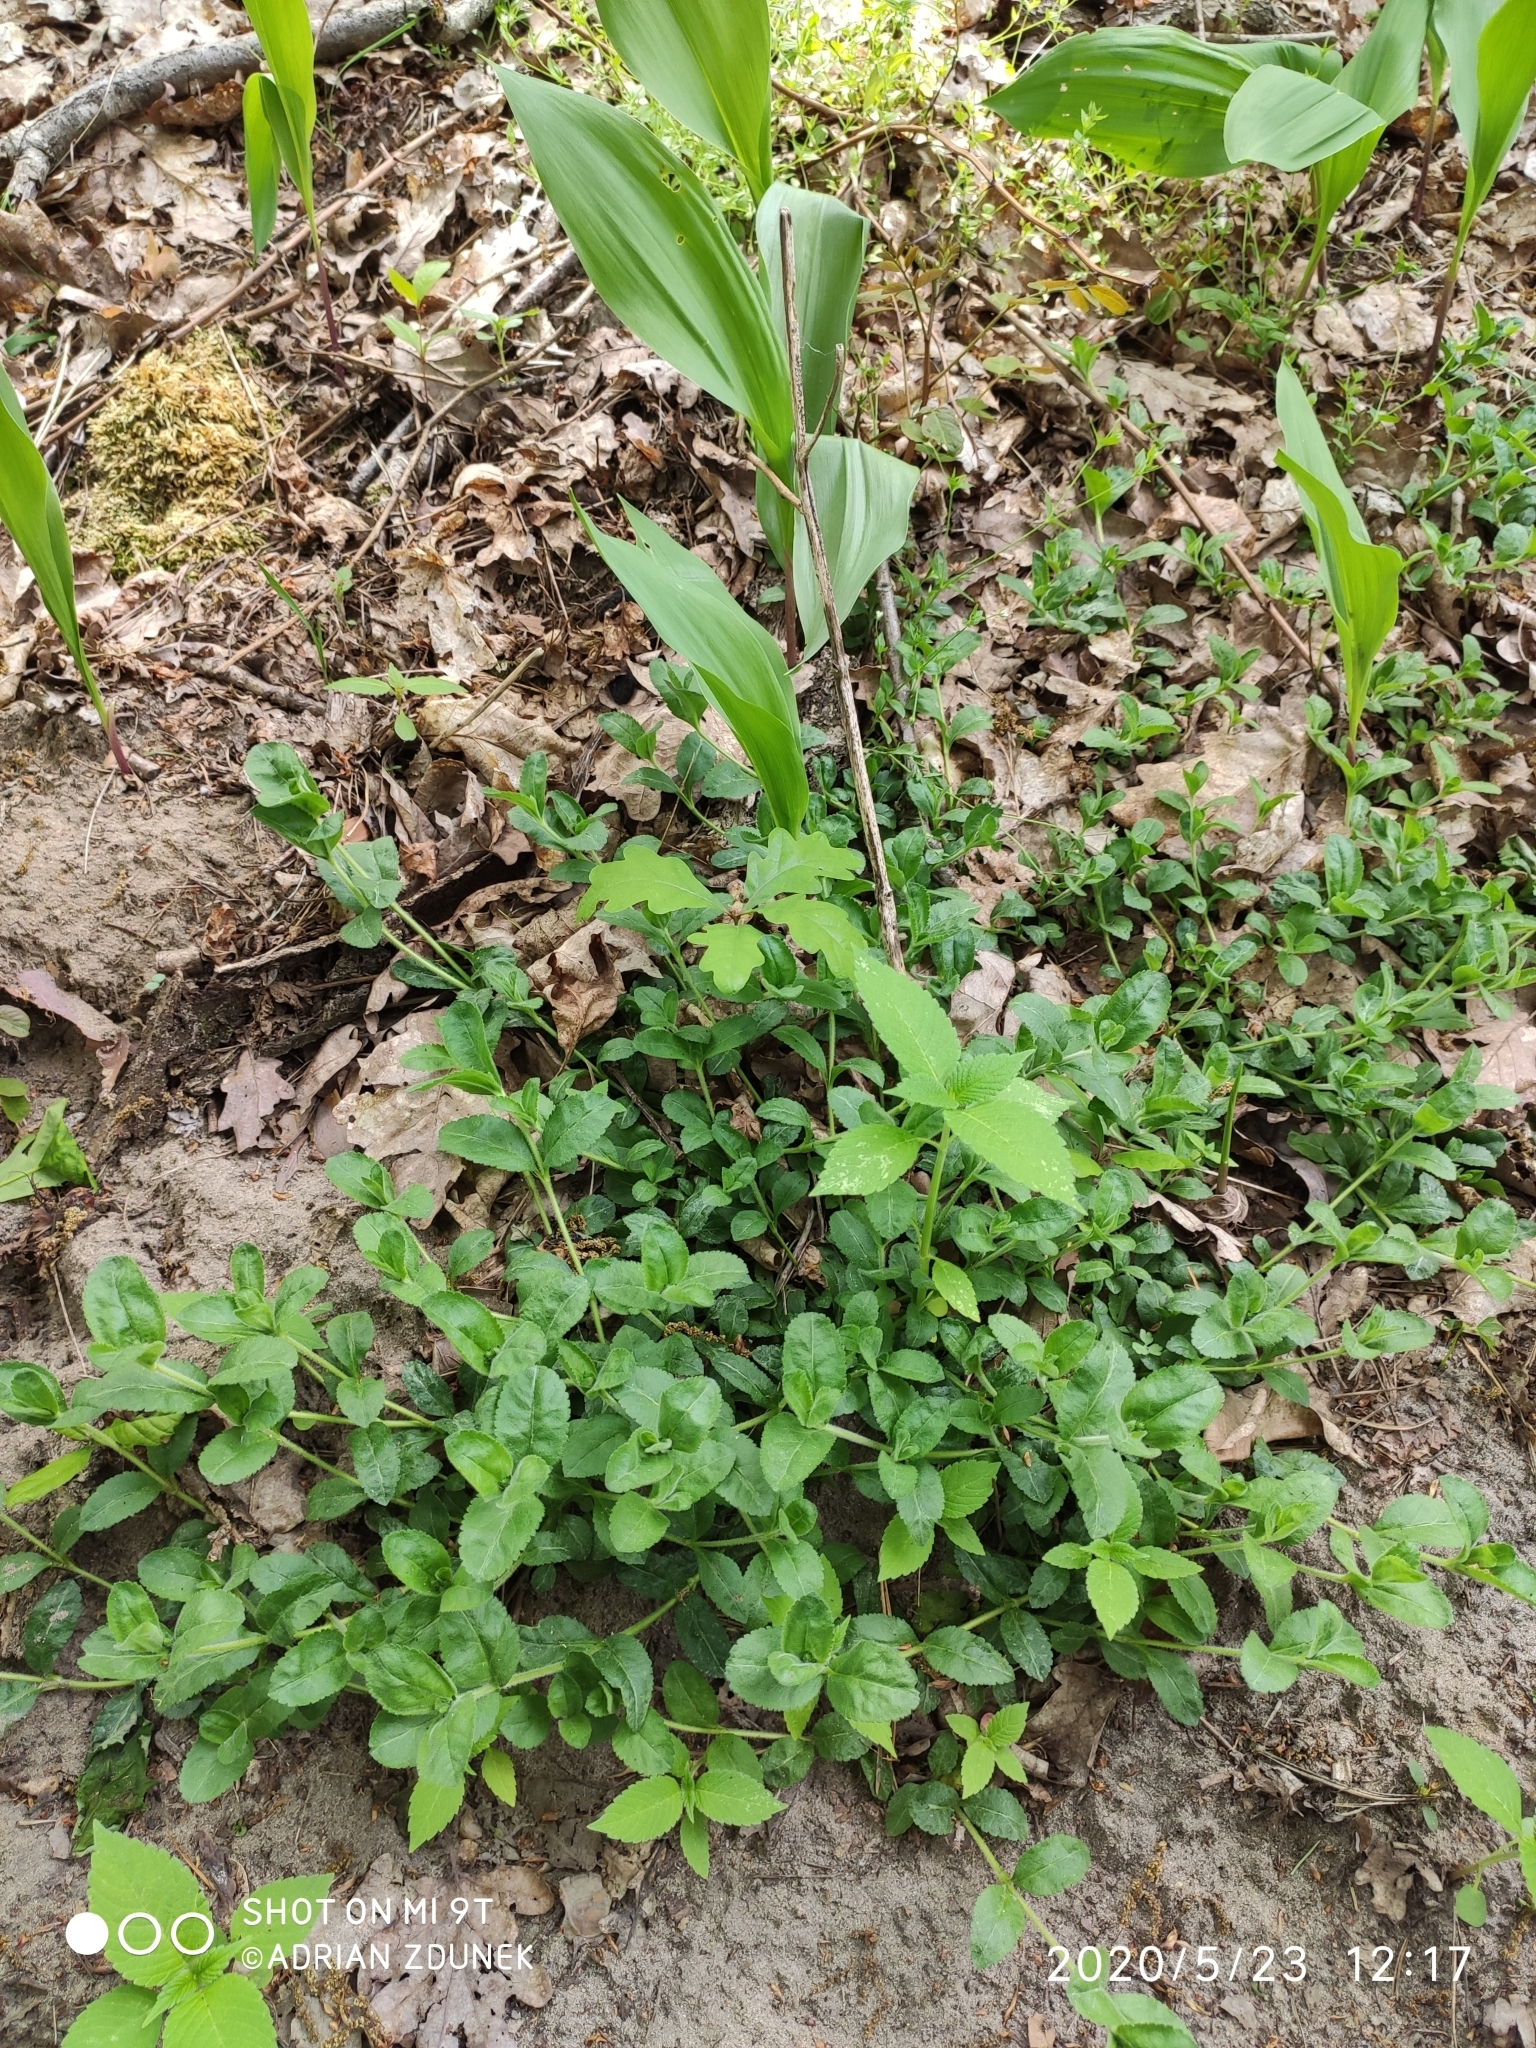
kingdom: Plantae
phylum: Tracheophyta
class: Magnoliopsida
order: Lamiales
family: Plantaginaceae
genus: Veronica
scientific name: Veronica officinalis
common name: Common speedwell
